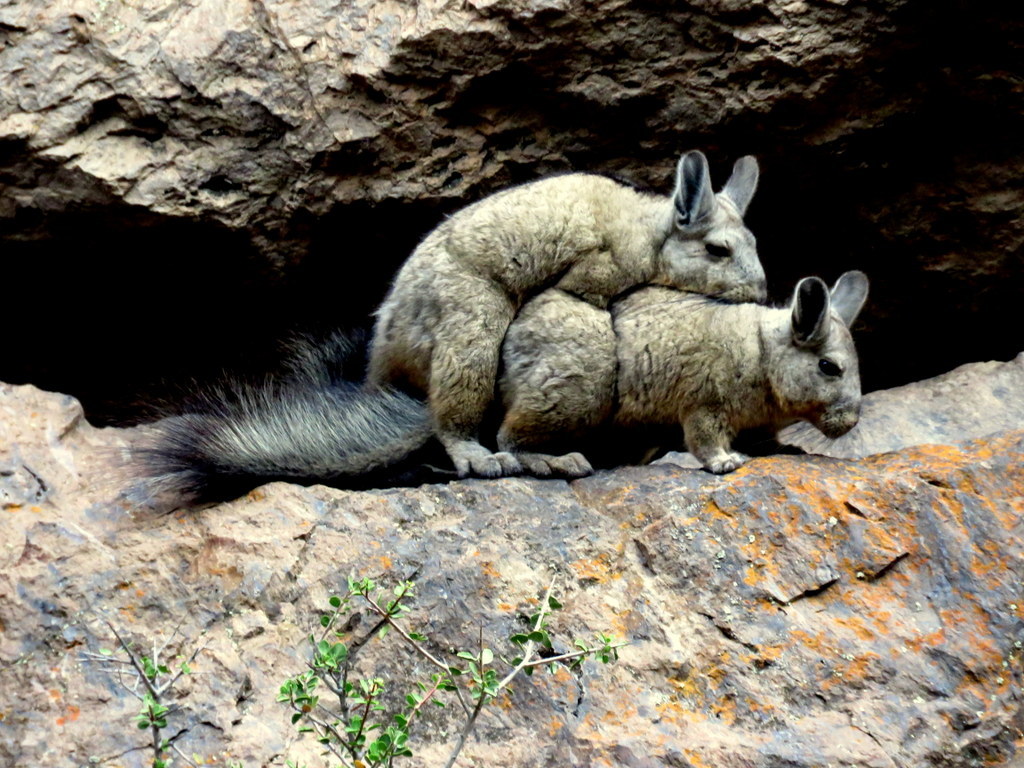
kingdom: Animalia
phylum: Chordata
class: Mammalia
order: Rodentia
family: Chinchillidae
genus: Lagidium
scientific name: Lagidium viscacia
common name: Southern viscacha
